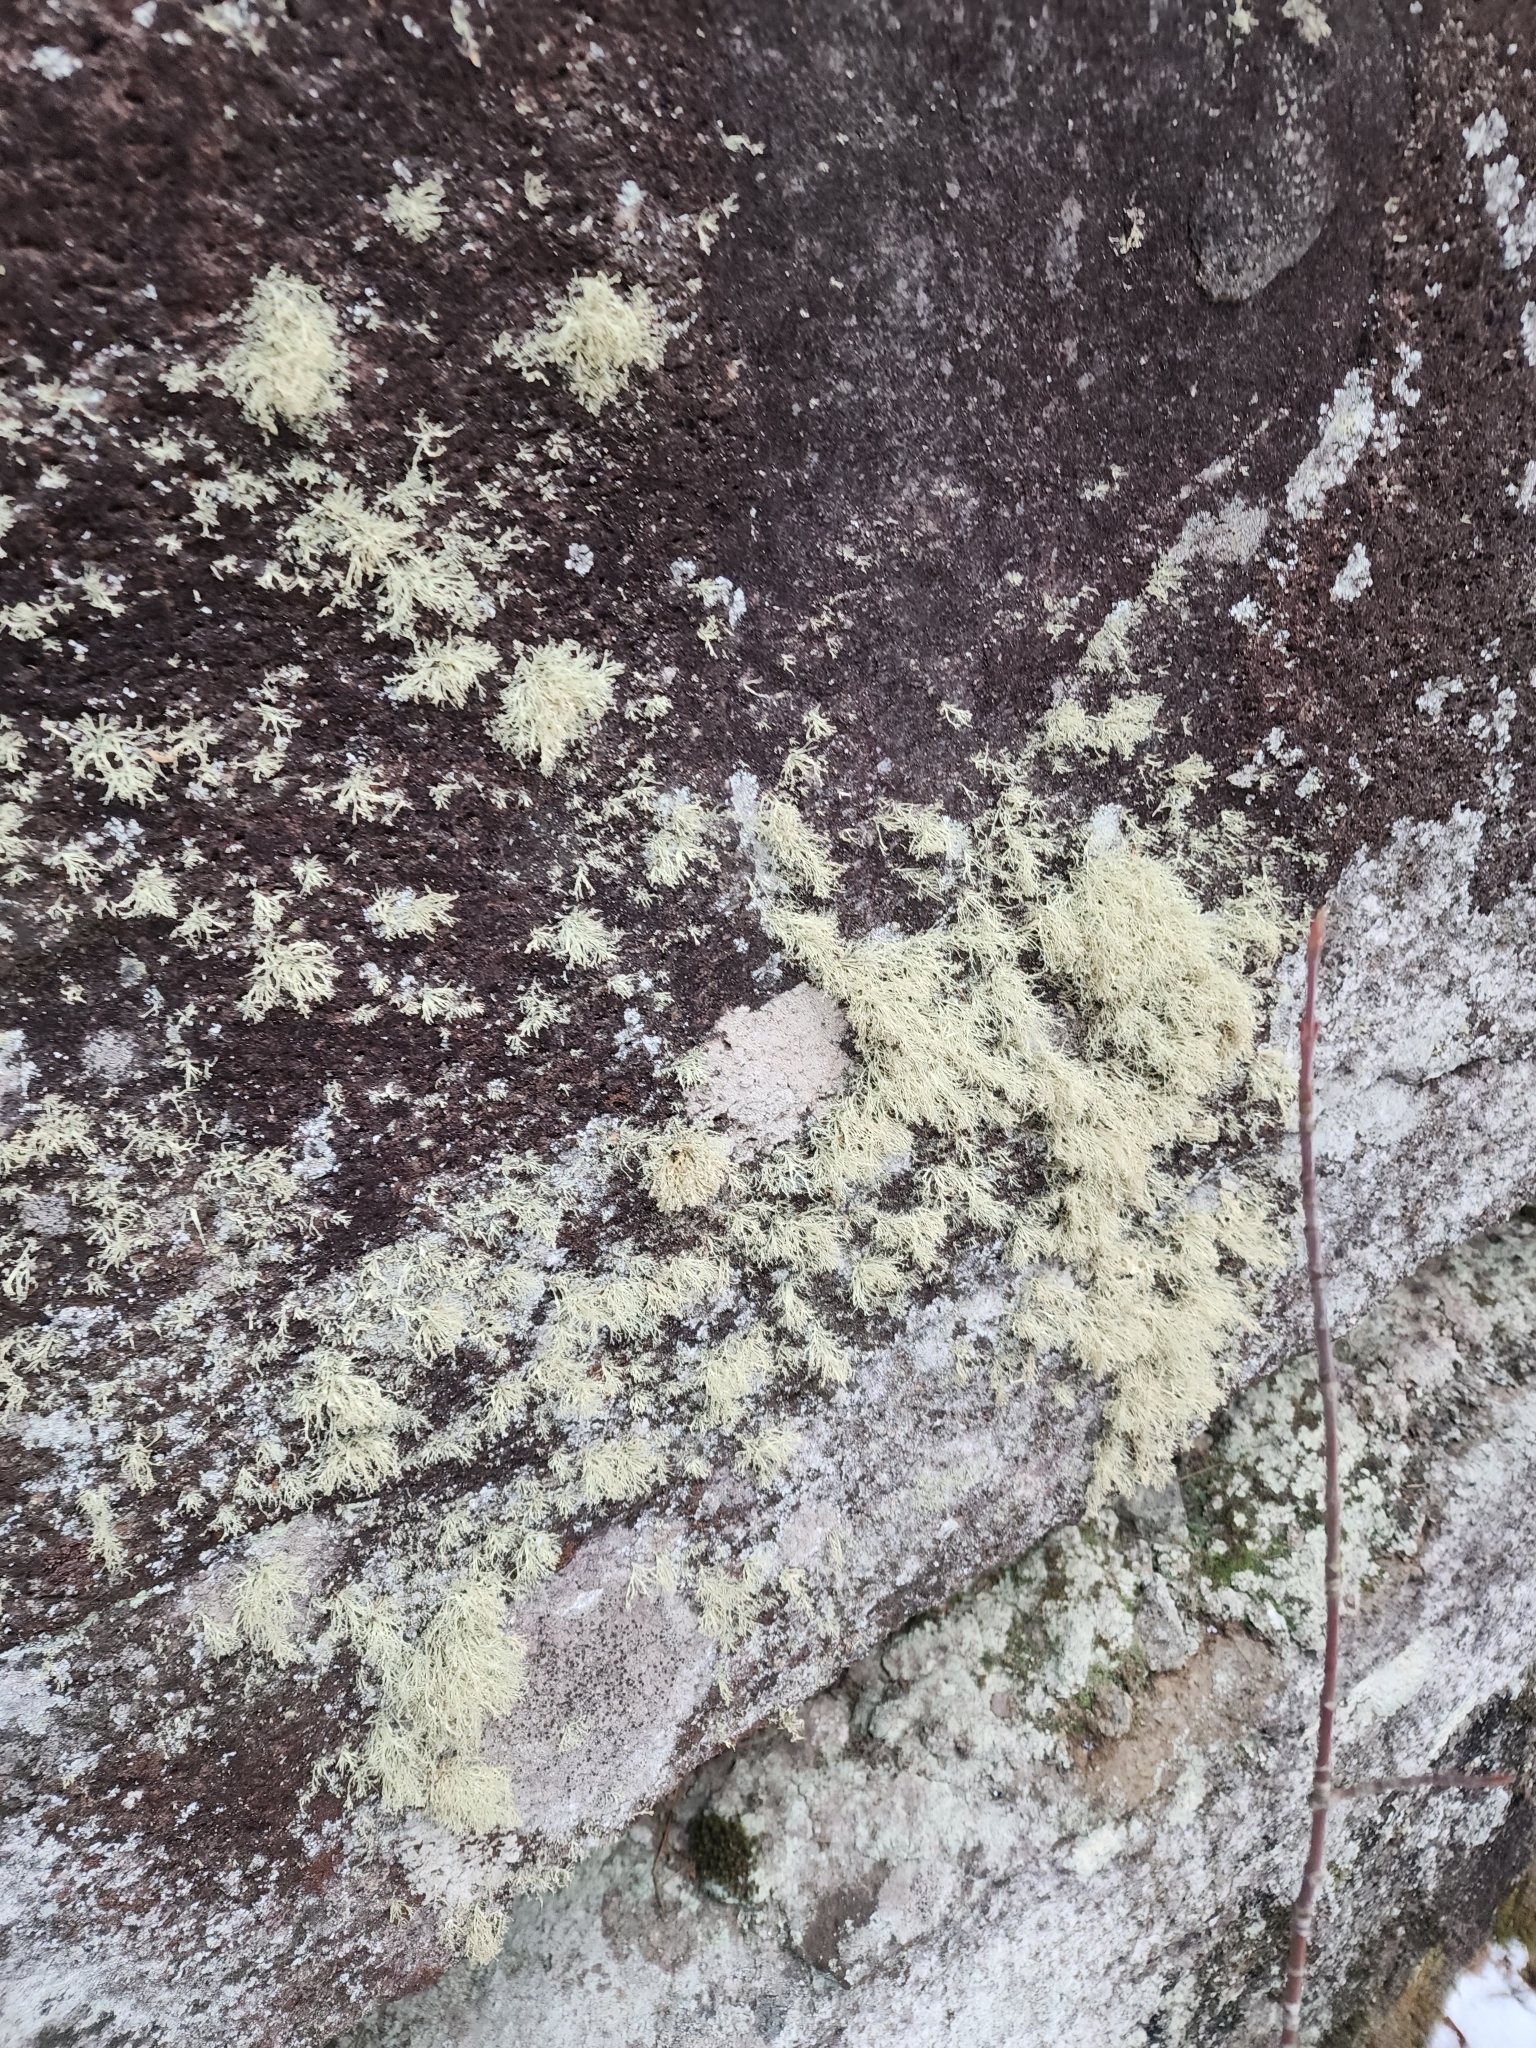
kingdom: Fungi
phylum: Ascomycota
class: Lecanoromycetes
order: Lecanorales
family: Ramalinaceae
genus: Ramalina
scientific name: Ramalina intermedia
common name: Rock bushy lichen
